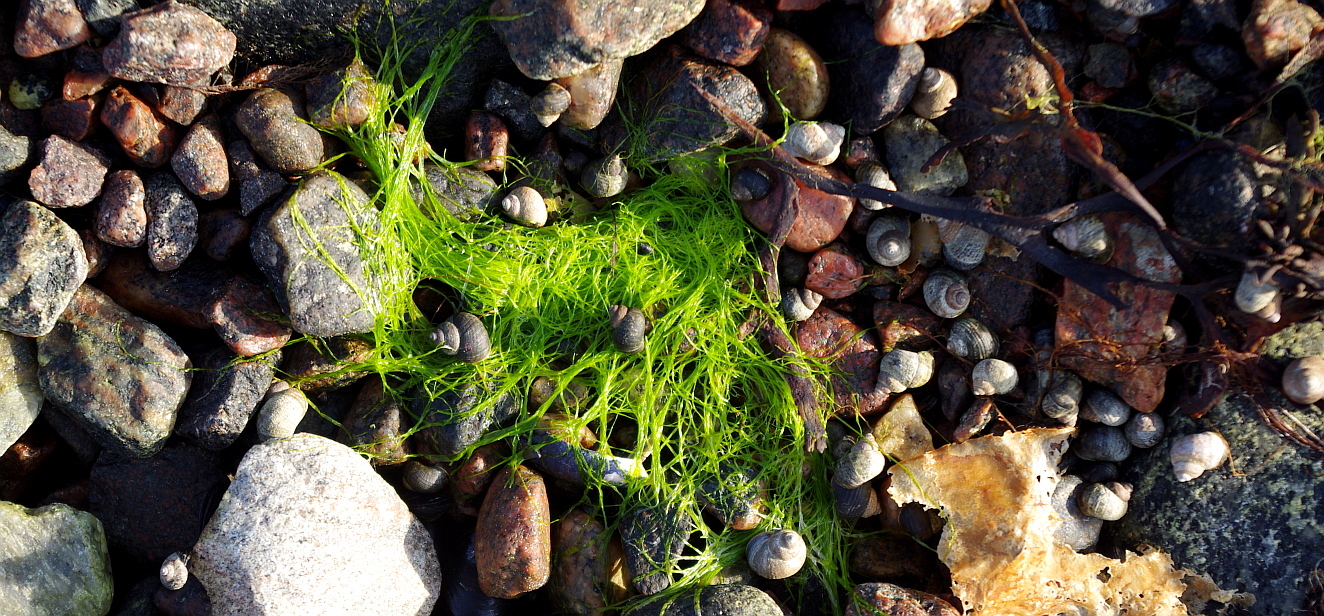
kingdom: Animalia
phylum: Mollusca
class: Gastropoda
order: Littorinimorpha
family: Littorinidae
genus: Littorina
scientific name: Littorina saxatilis
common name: Black-lined periwinkle
